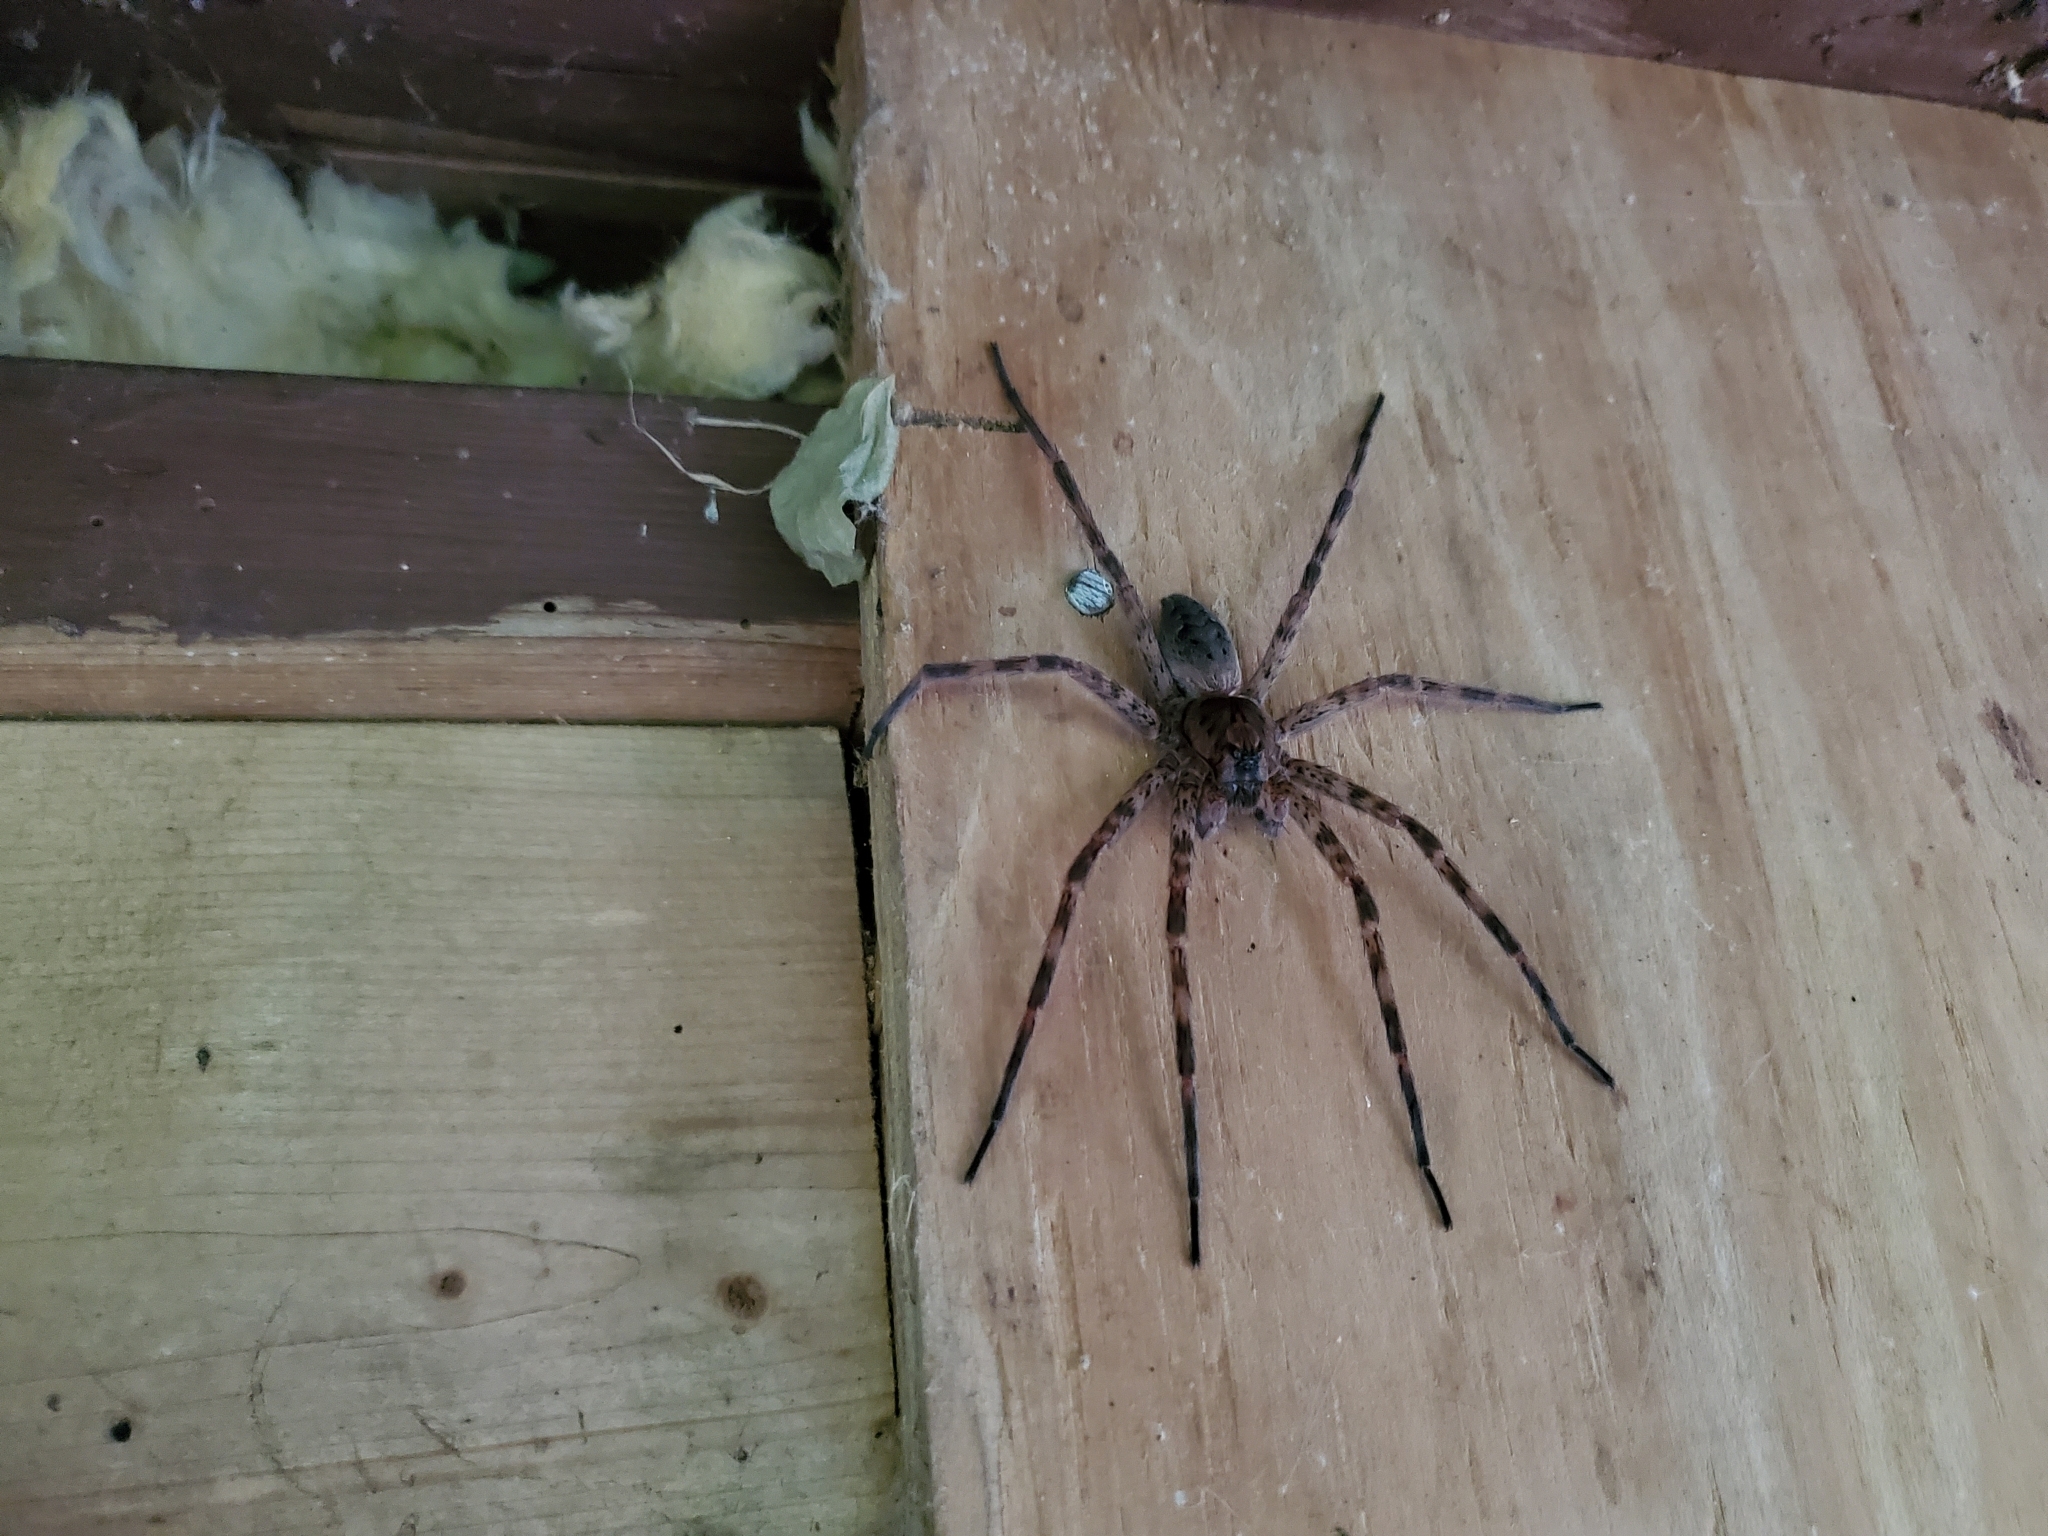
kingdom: Animalia
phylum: Arthropoda
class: Arachnida
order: Araneae
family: Pisauridae
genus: Dolomedes
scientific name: Dolomedes tenebrosus
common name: Dark fishing spider
